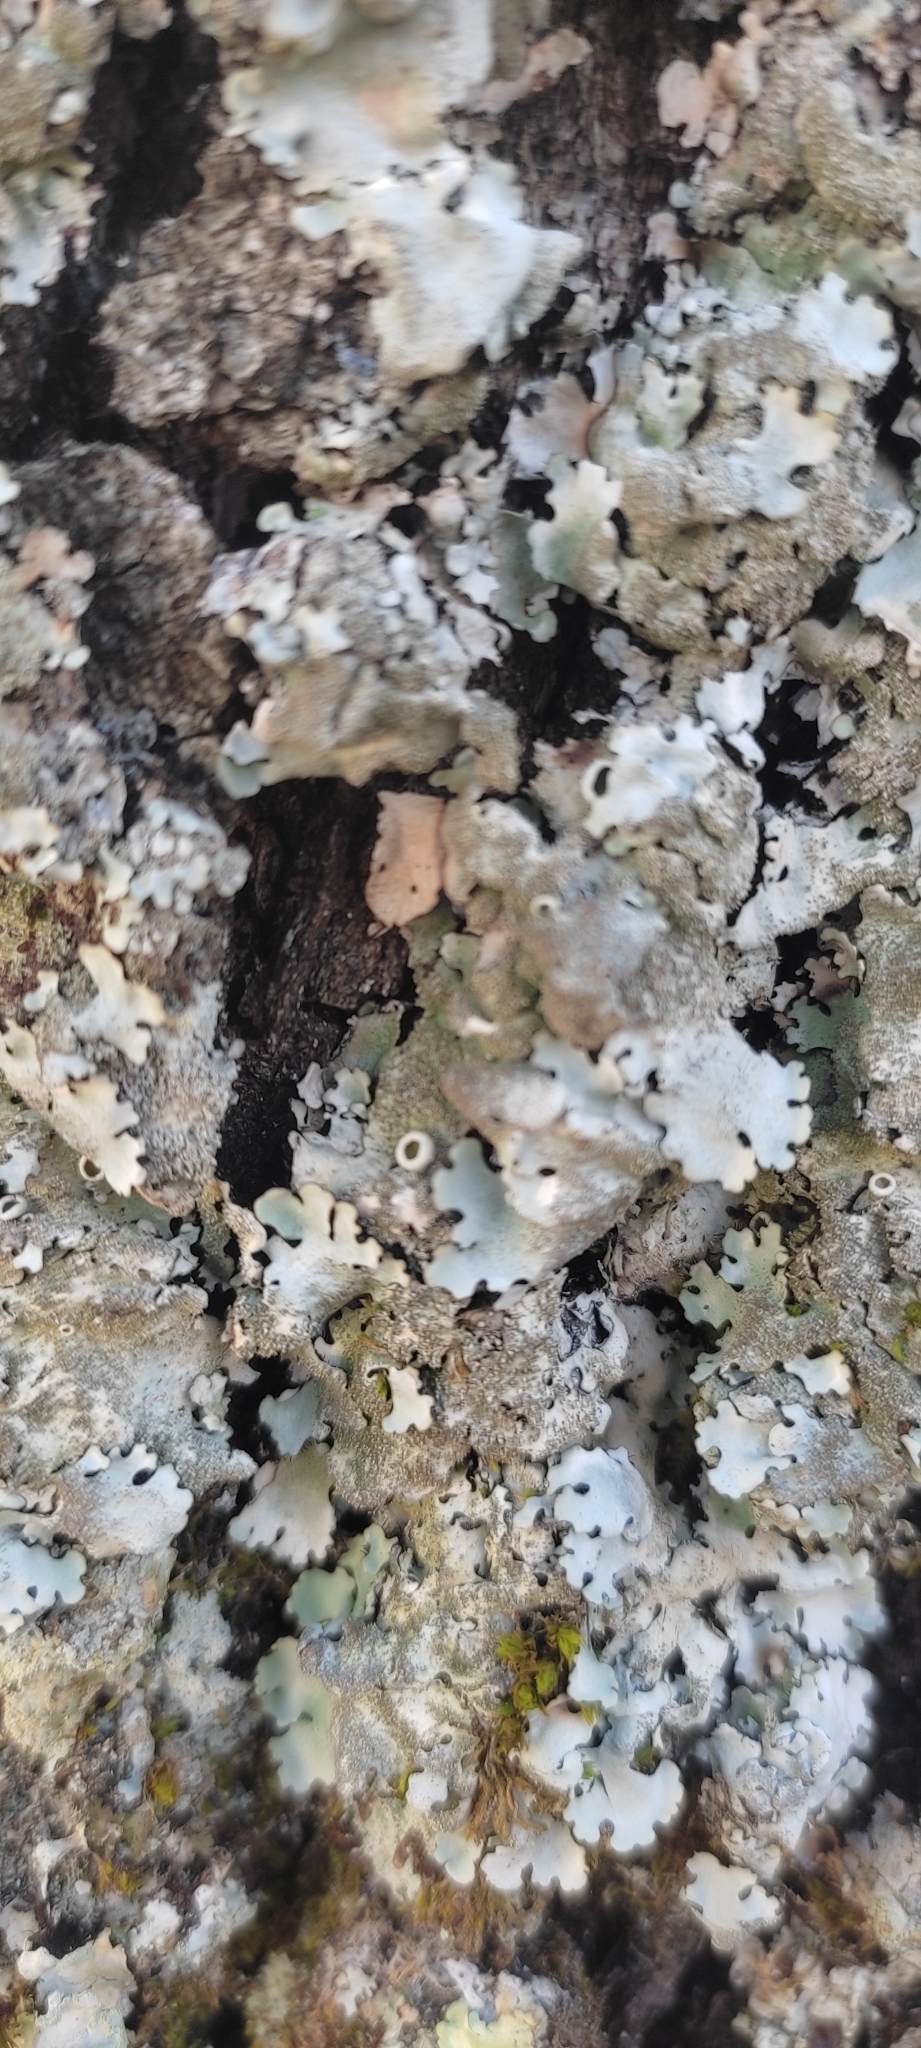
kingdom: Fungi
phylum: Ascomycota
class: Lecanoromycetes
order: Lecanorales
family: Parmeliaceae
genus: Parmelina
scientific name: Parmelina tiliacea
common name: Linden shield lichen
